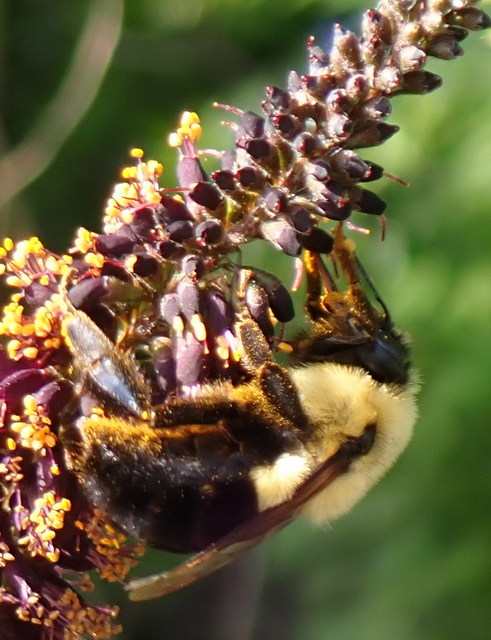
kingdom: Animalia
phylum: Arthropoda
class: Insecta
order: Hymenoptera
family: Apidae
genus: Bombus
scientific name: Bombus impatiens
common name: Common eastern bumble bee
